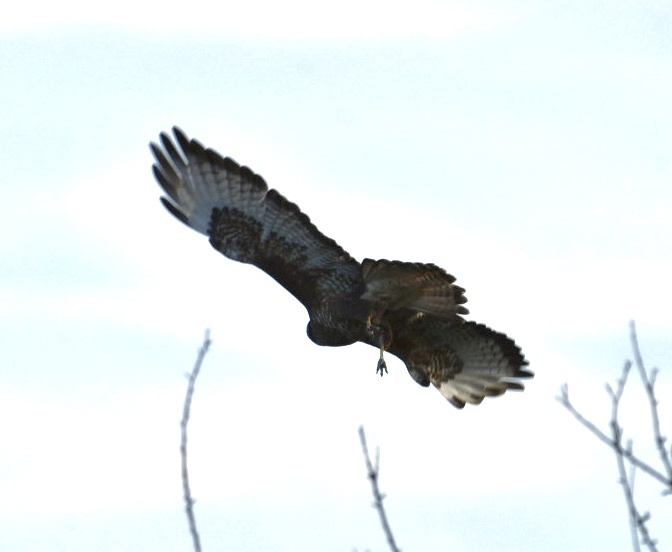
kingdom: Animalia
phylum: Chordata
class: Aves
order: Accipitriformes
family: Accipitridae
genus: Buteo
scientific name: Buteo buteo
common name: Common buzzard
